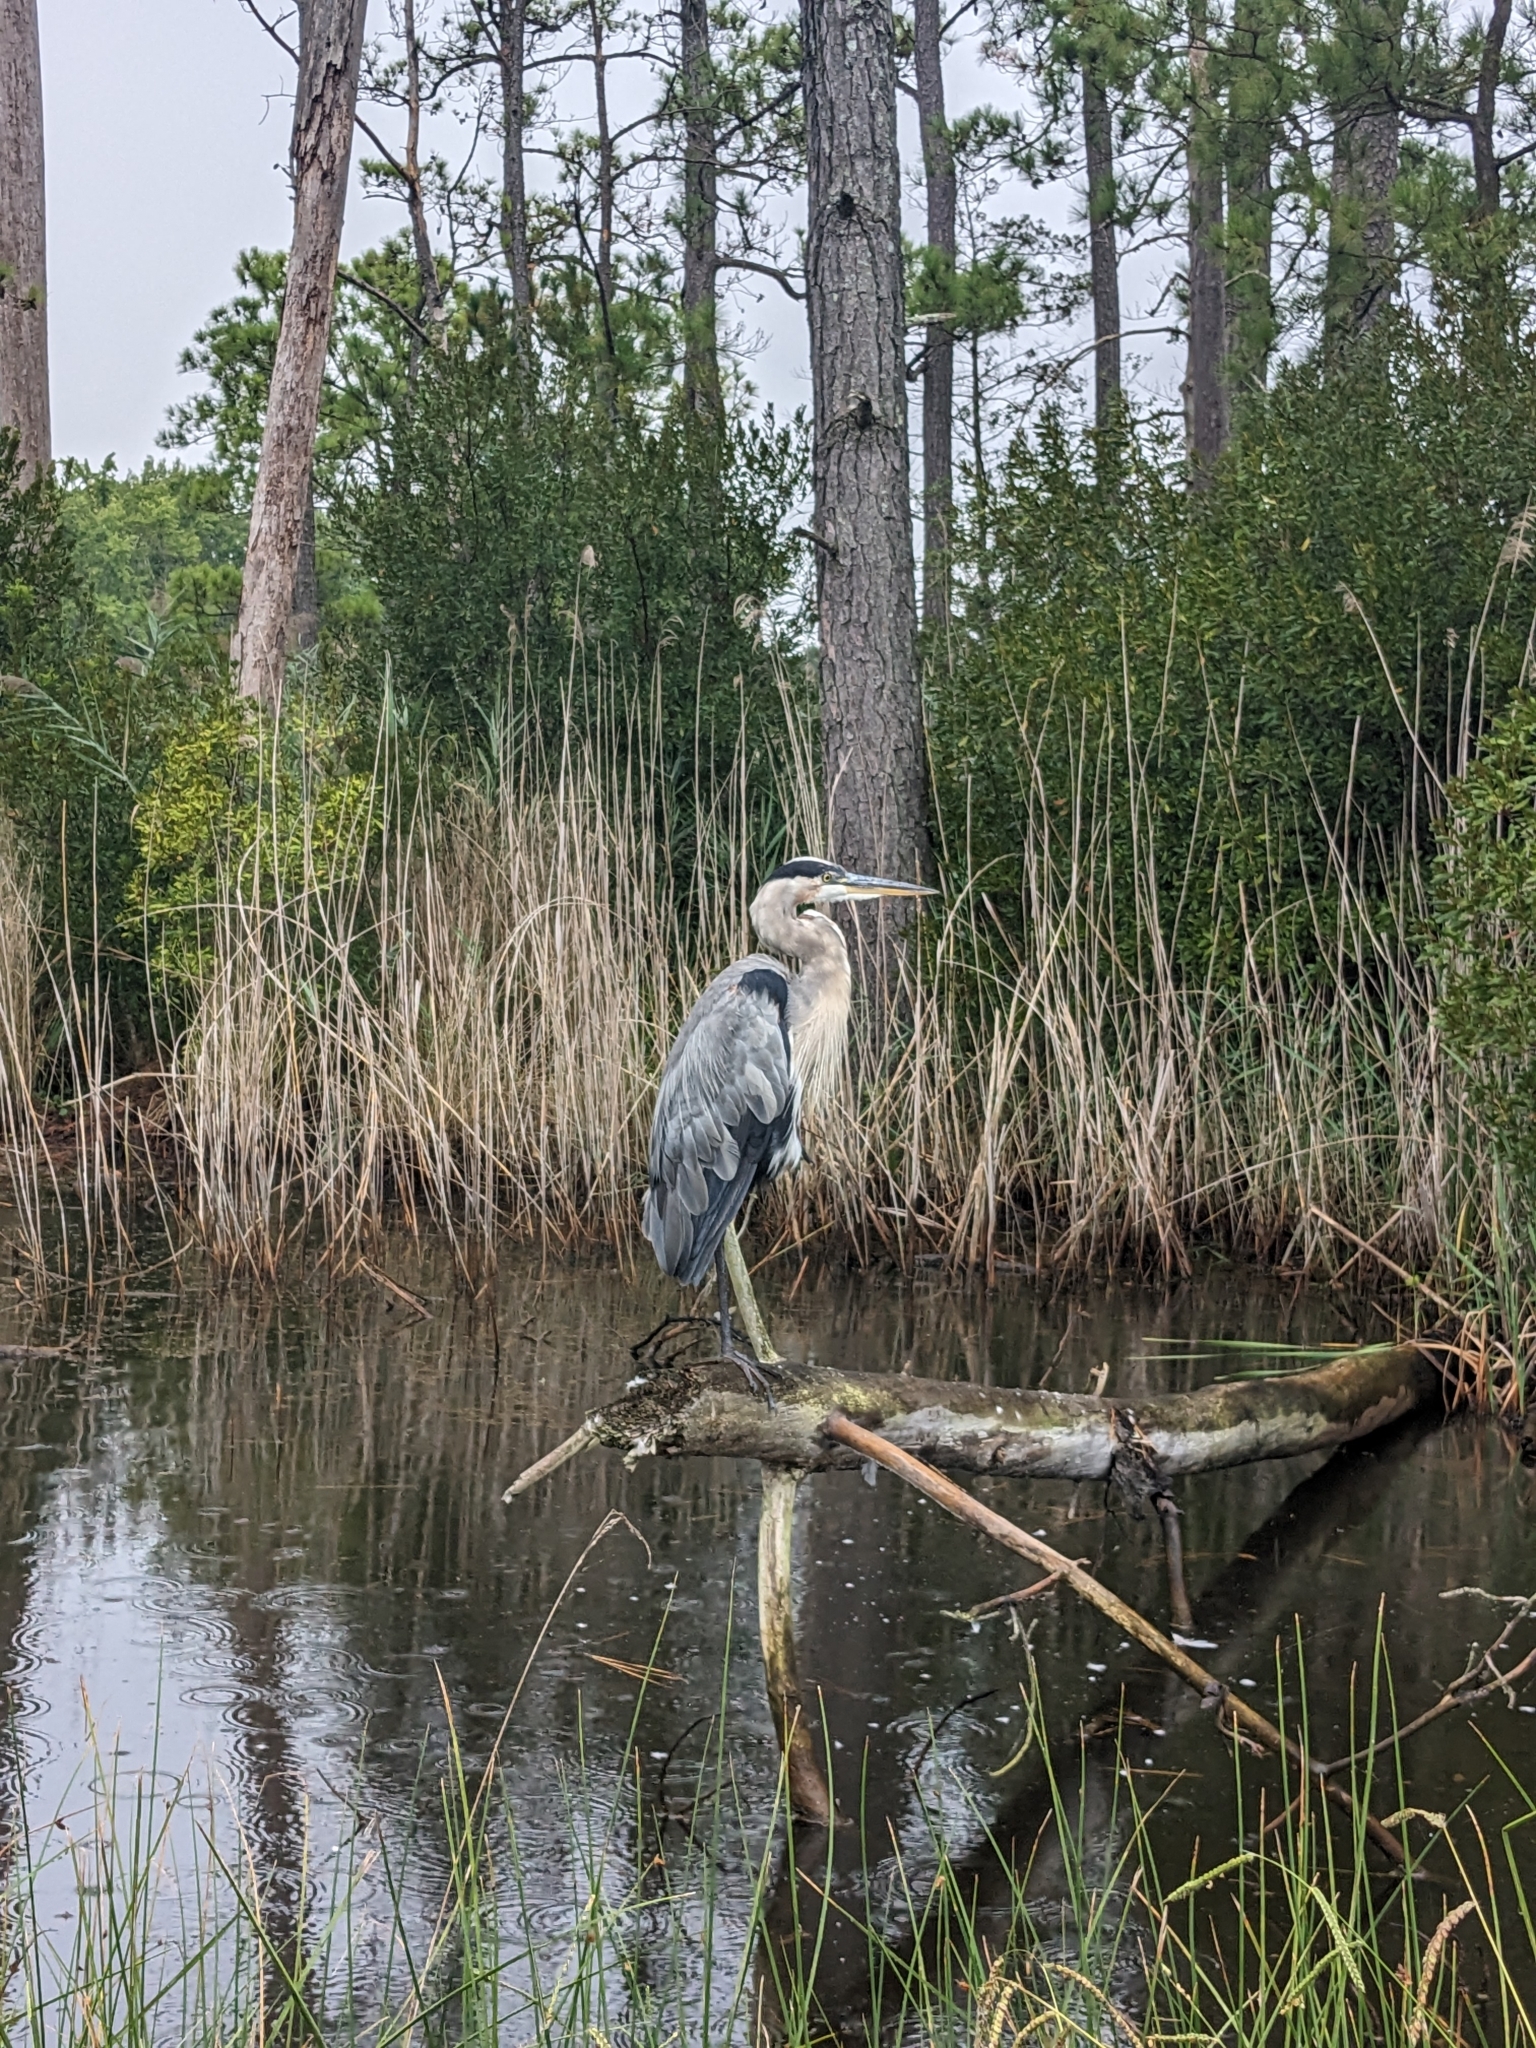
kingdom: Animalia
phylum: Chordata
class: Aves
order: Pelecaniformes
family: Ardeidae
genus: Ardea
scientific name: Ardea herodias
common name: Great blue heron
